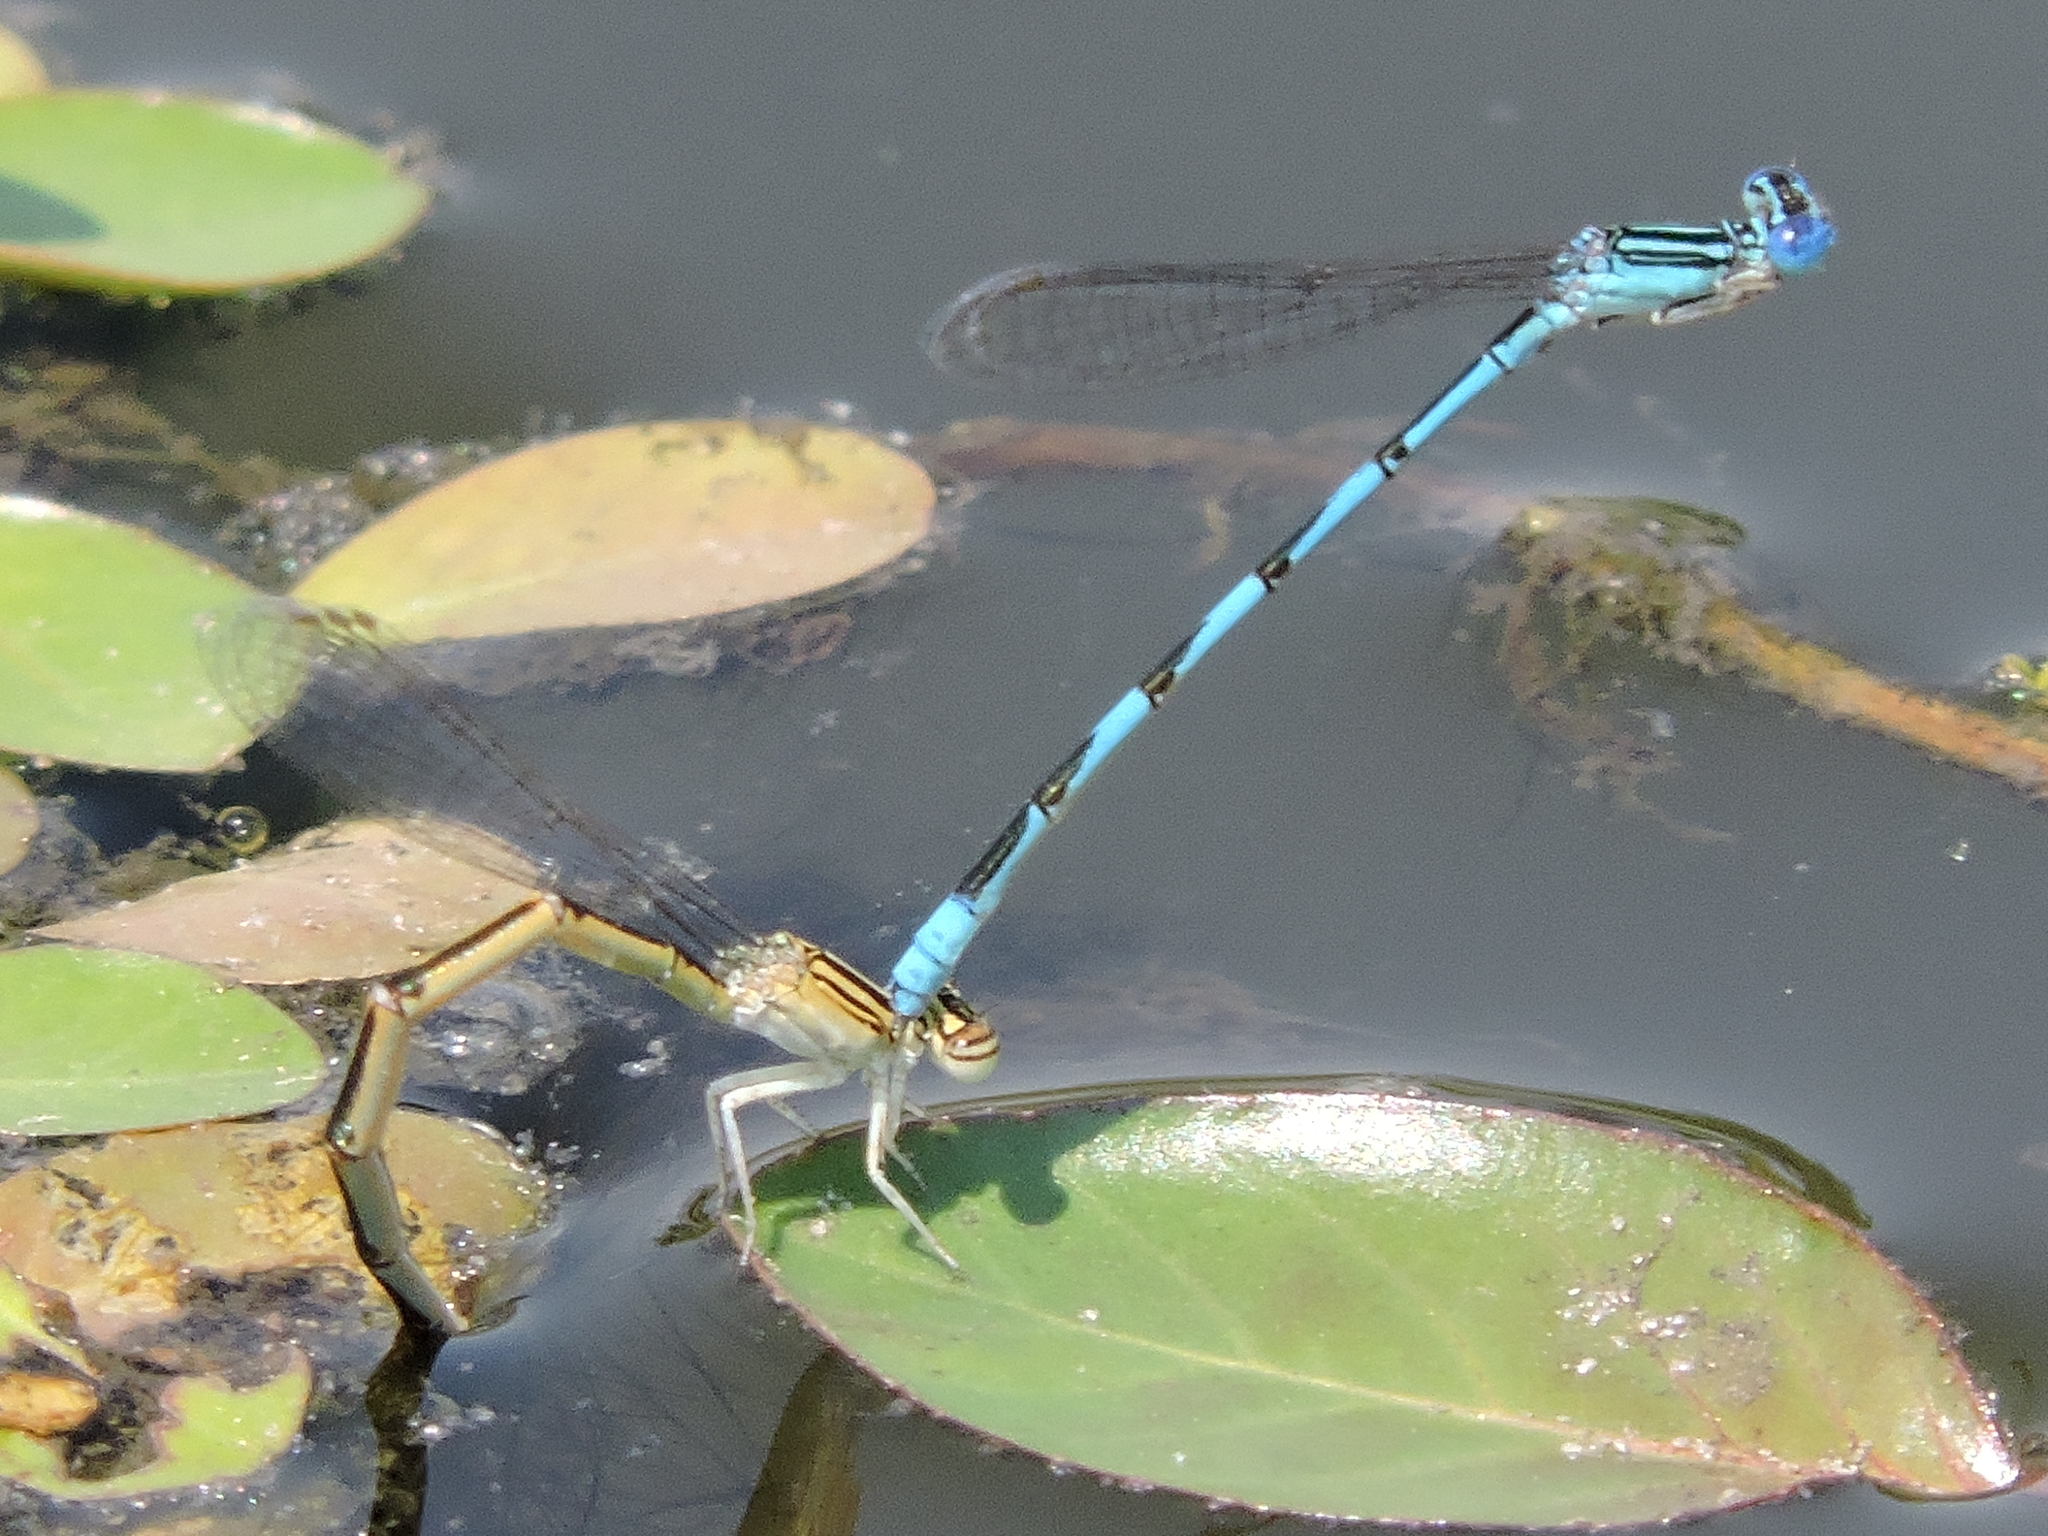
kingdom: Animalia
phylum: Arthropoda
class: Insecta
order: Odonata
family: Coenagrionidae
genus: Enallagma
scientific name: Enallagma basidens
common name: Double-striped bluet
